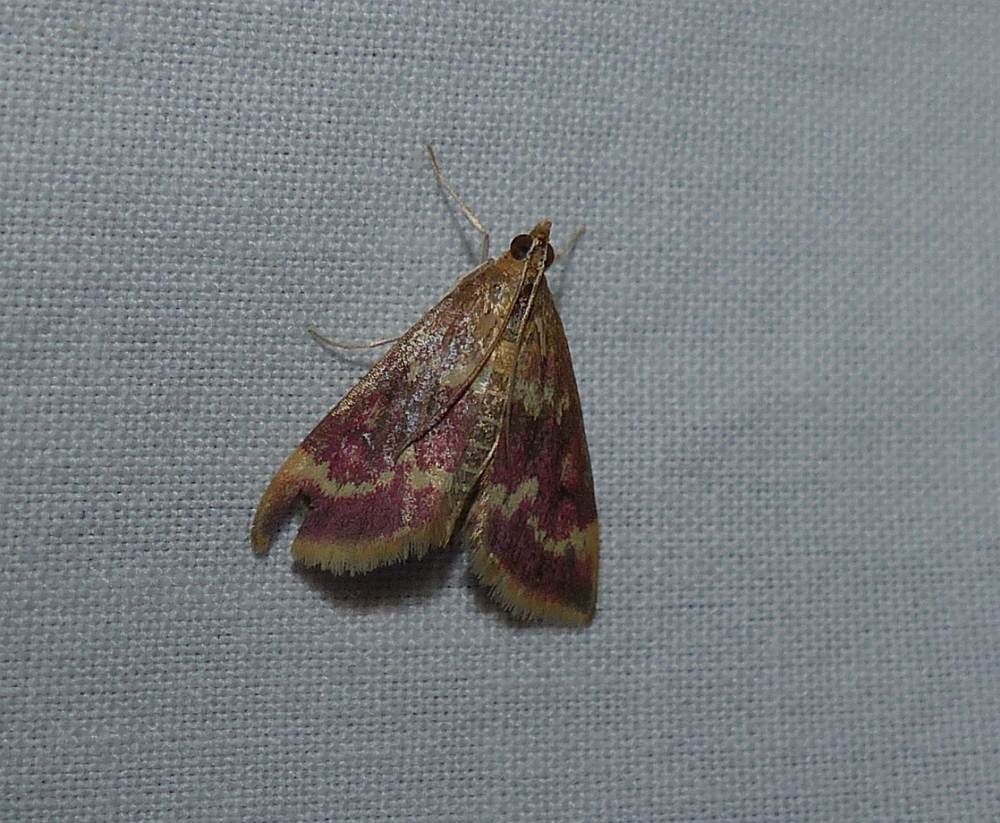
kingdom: Animalia
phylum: Arthropoda
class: Insecta
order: Lepidoptera
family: Crambidae
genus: Pyrausta
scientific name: Pyrausta signatalis
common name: Raspberry pyrausta moth
